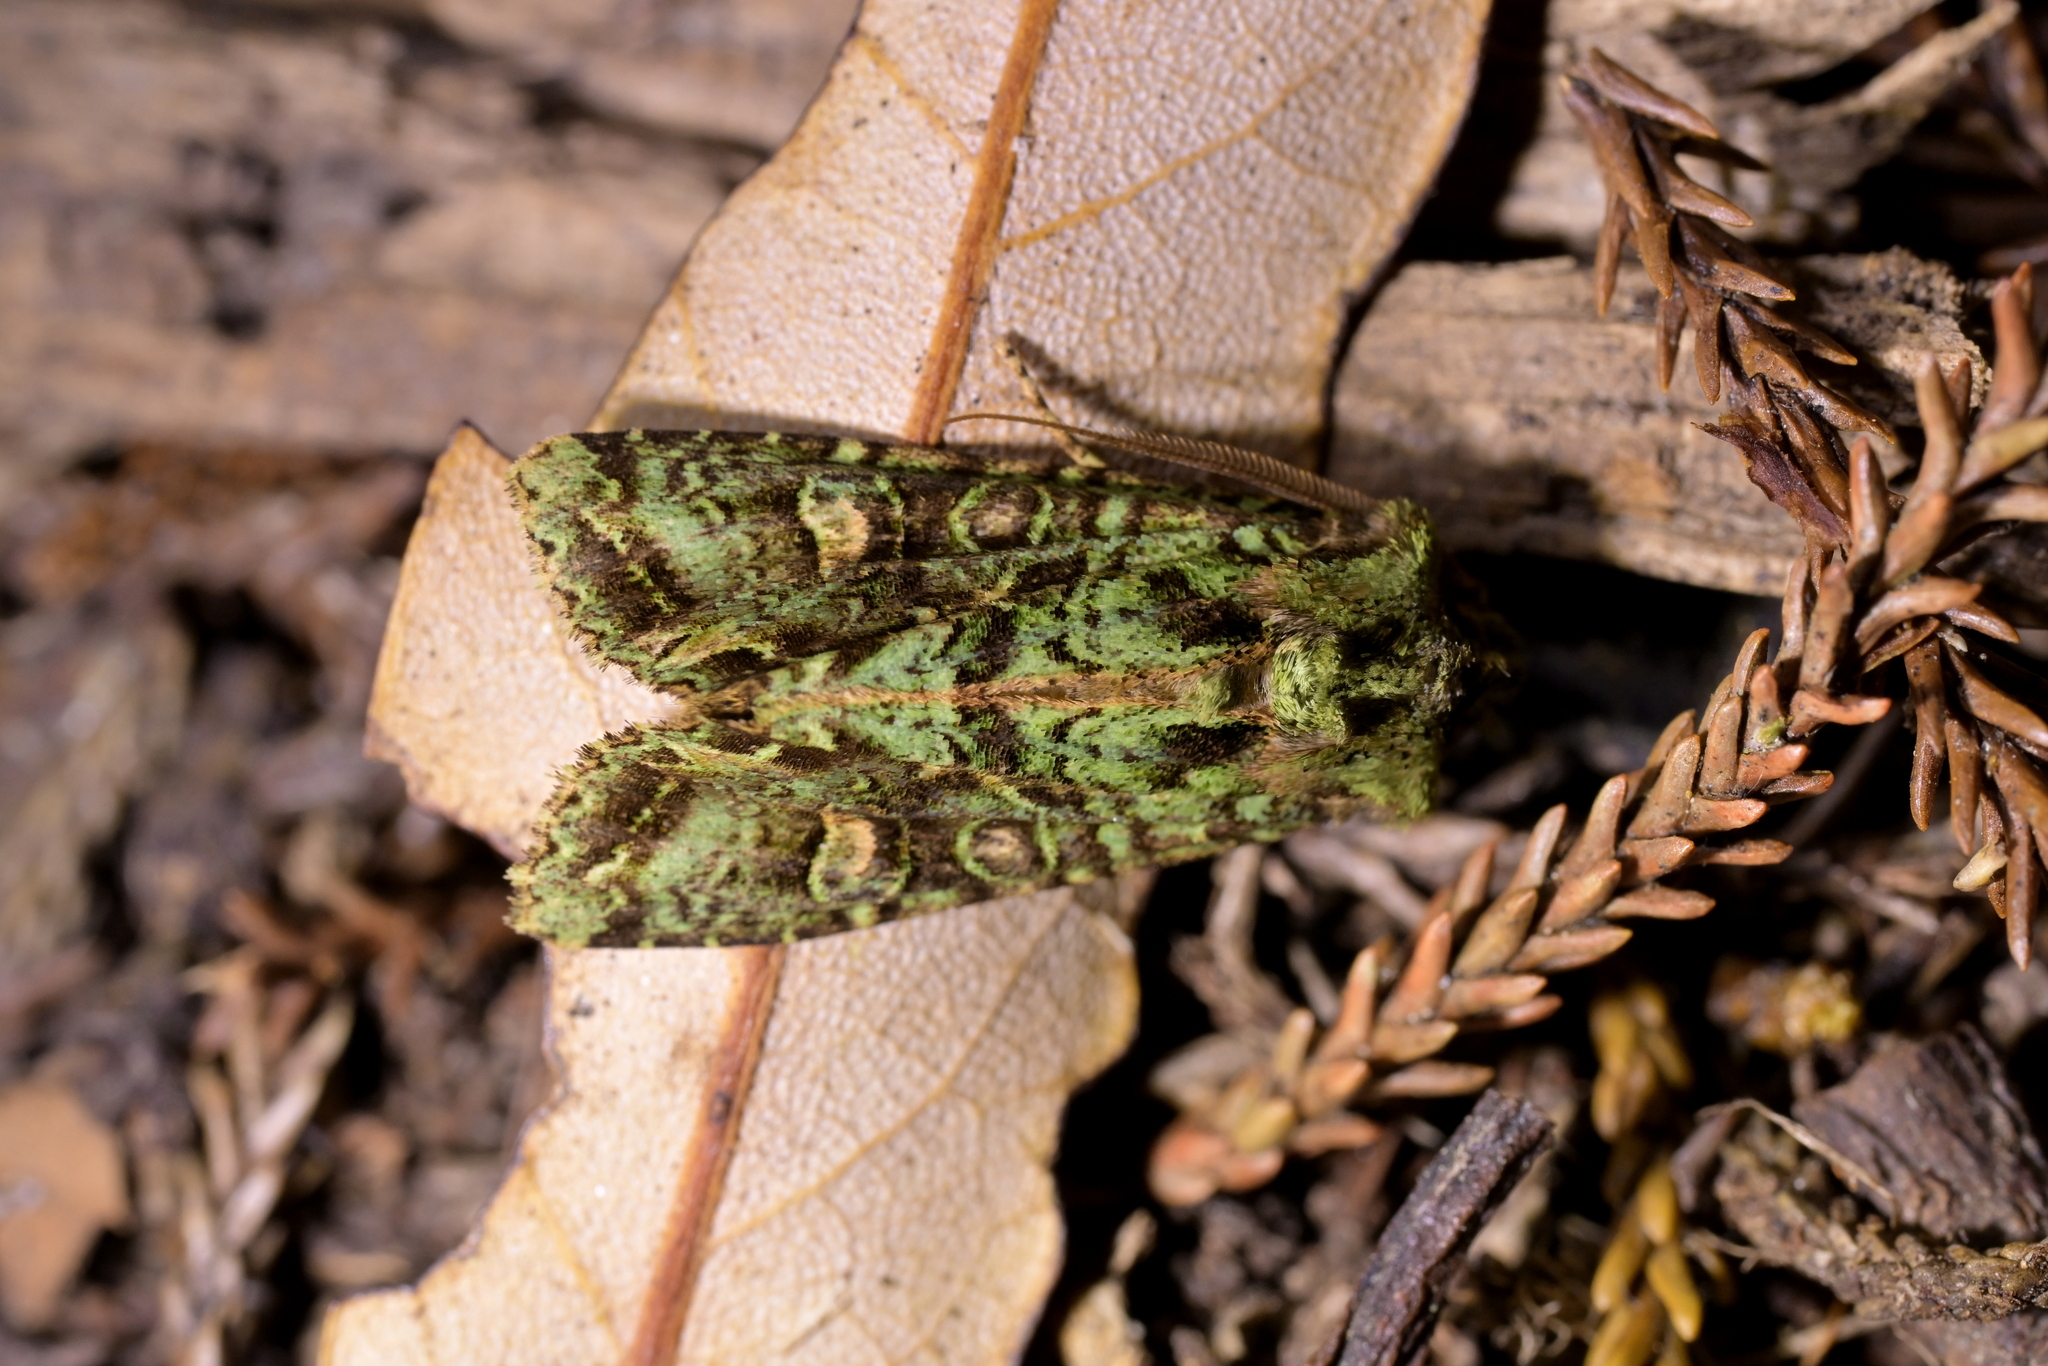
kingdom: Animalia
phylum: Arthropoda
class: Insecta
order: Lepidoptera
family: Noctuidae
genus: Ichneutica
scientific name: Ichneutica
